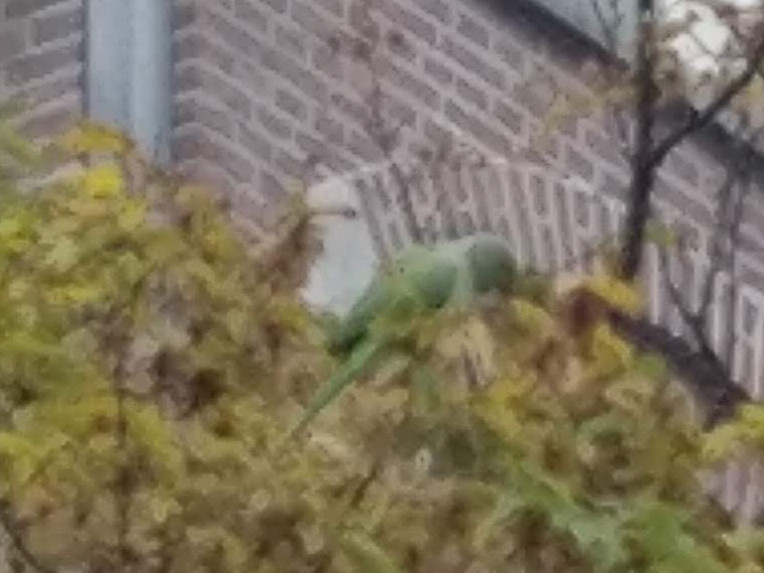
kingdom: Animalia
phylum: Chordata
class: Aves
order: Psittaciformes
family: Psittacidae
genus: Psittacula
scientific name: Psittacula krameri
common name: Rose-ringed parakeet
